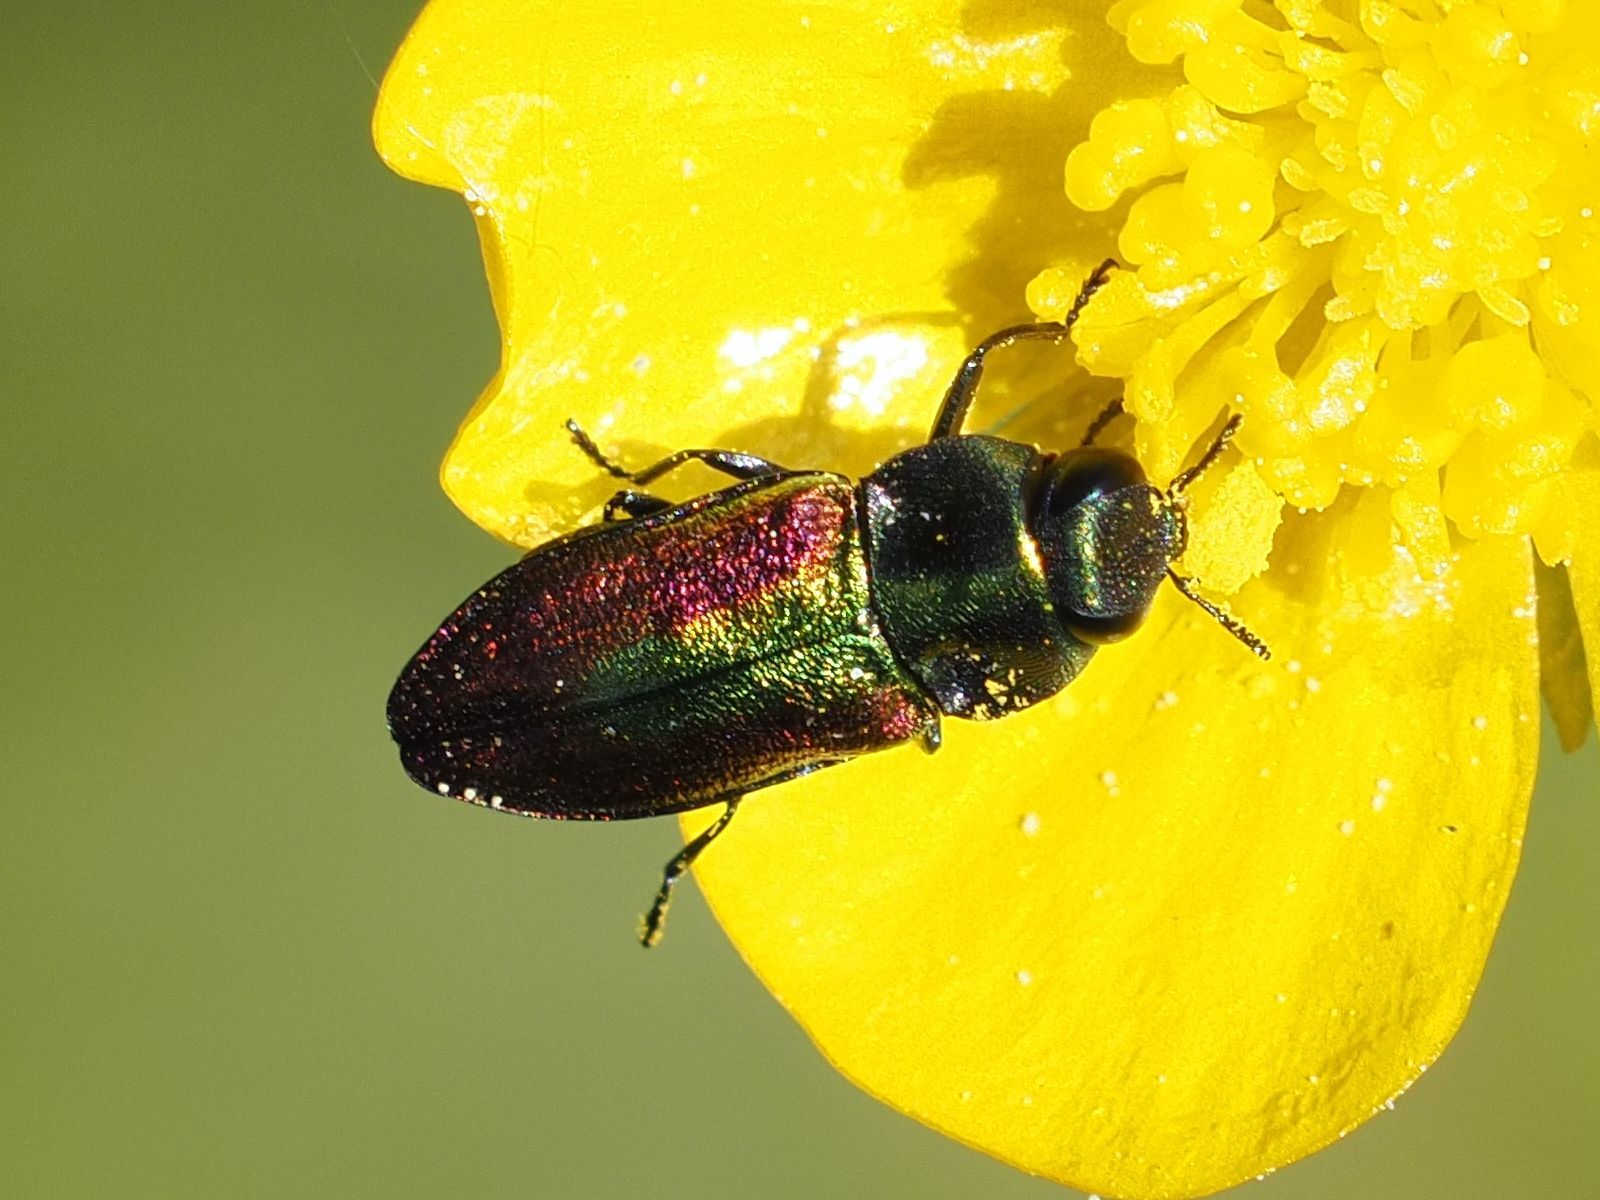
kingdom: Animalia
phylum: Arthropoda
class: Insecta
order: Coleoptera
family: Buprestidae
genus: Anthaxia
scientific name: Anthaxia fulgurans
